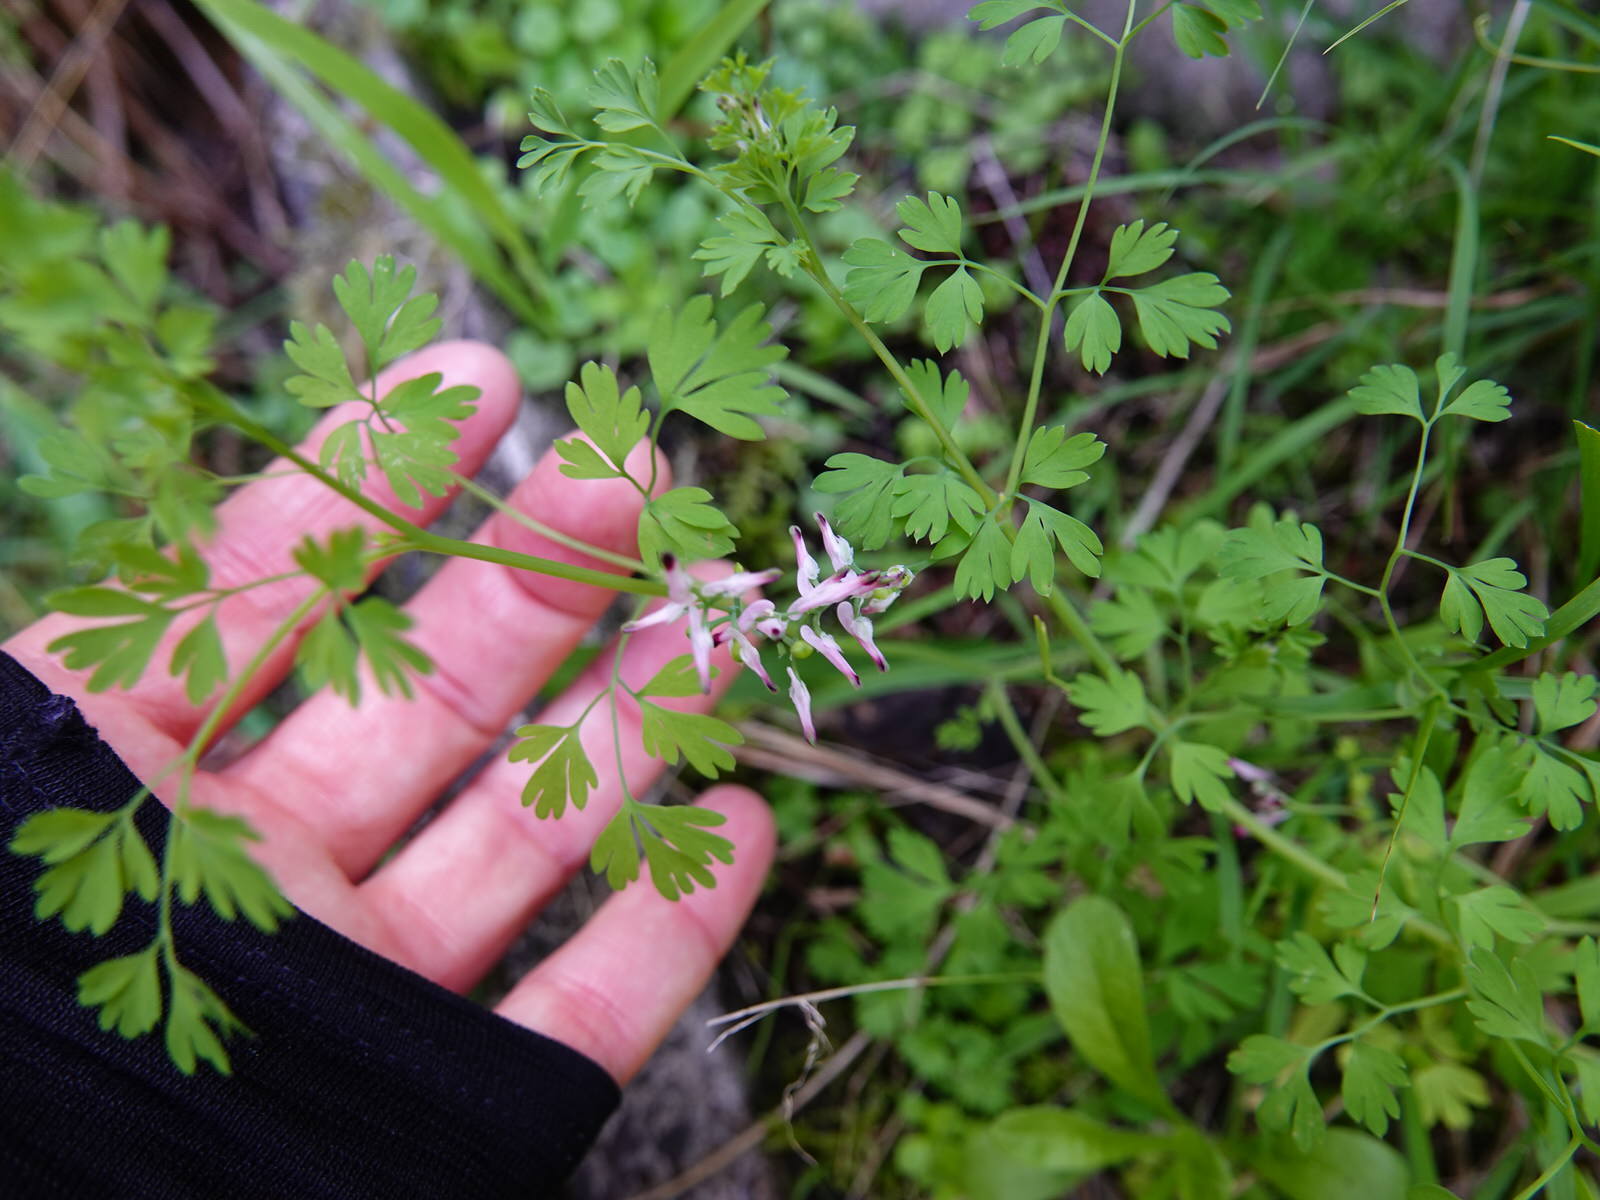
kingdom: Plantae
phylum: Tracheophyta
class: Magnoliopsida
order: Ranunculales
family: Papaveraceae
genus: Fumaria
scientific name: Fumaria muralis
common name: Common ramping-fumitory
